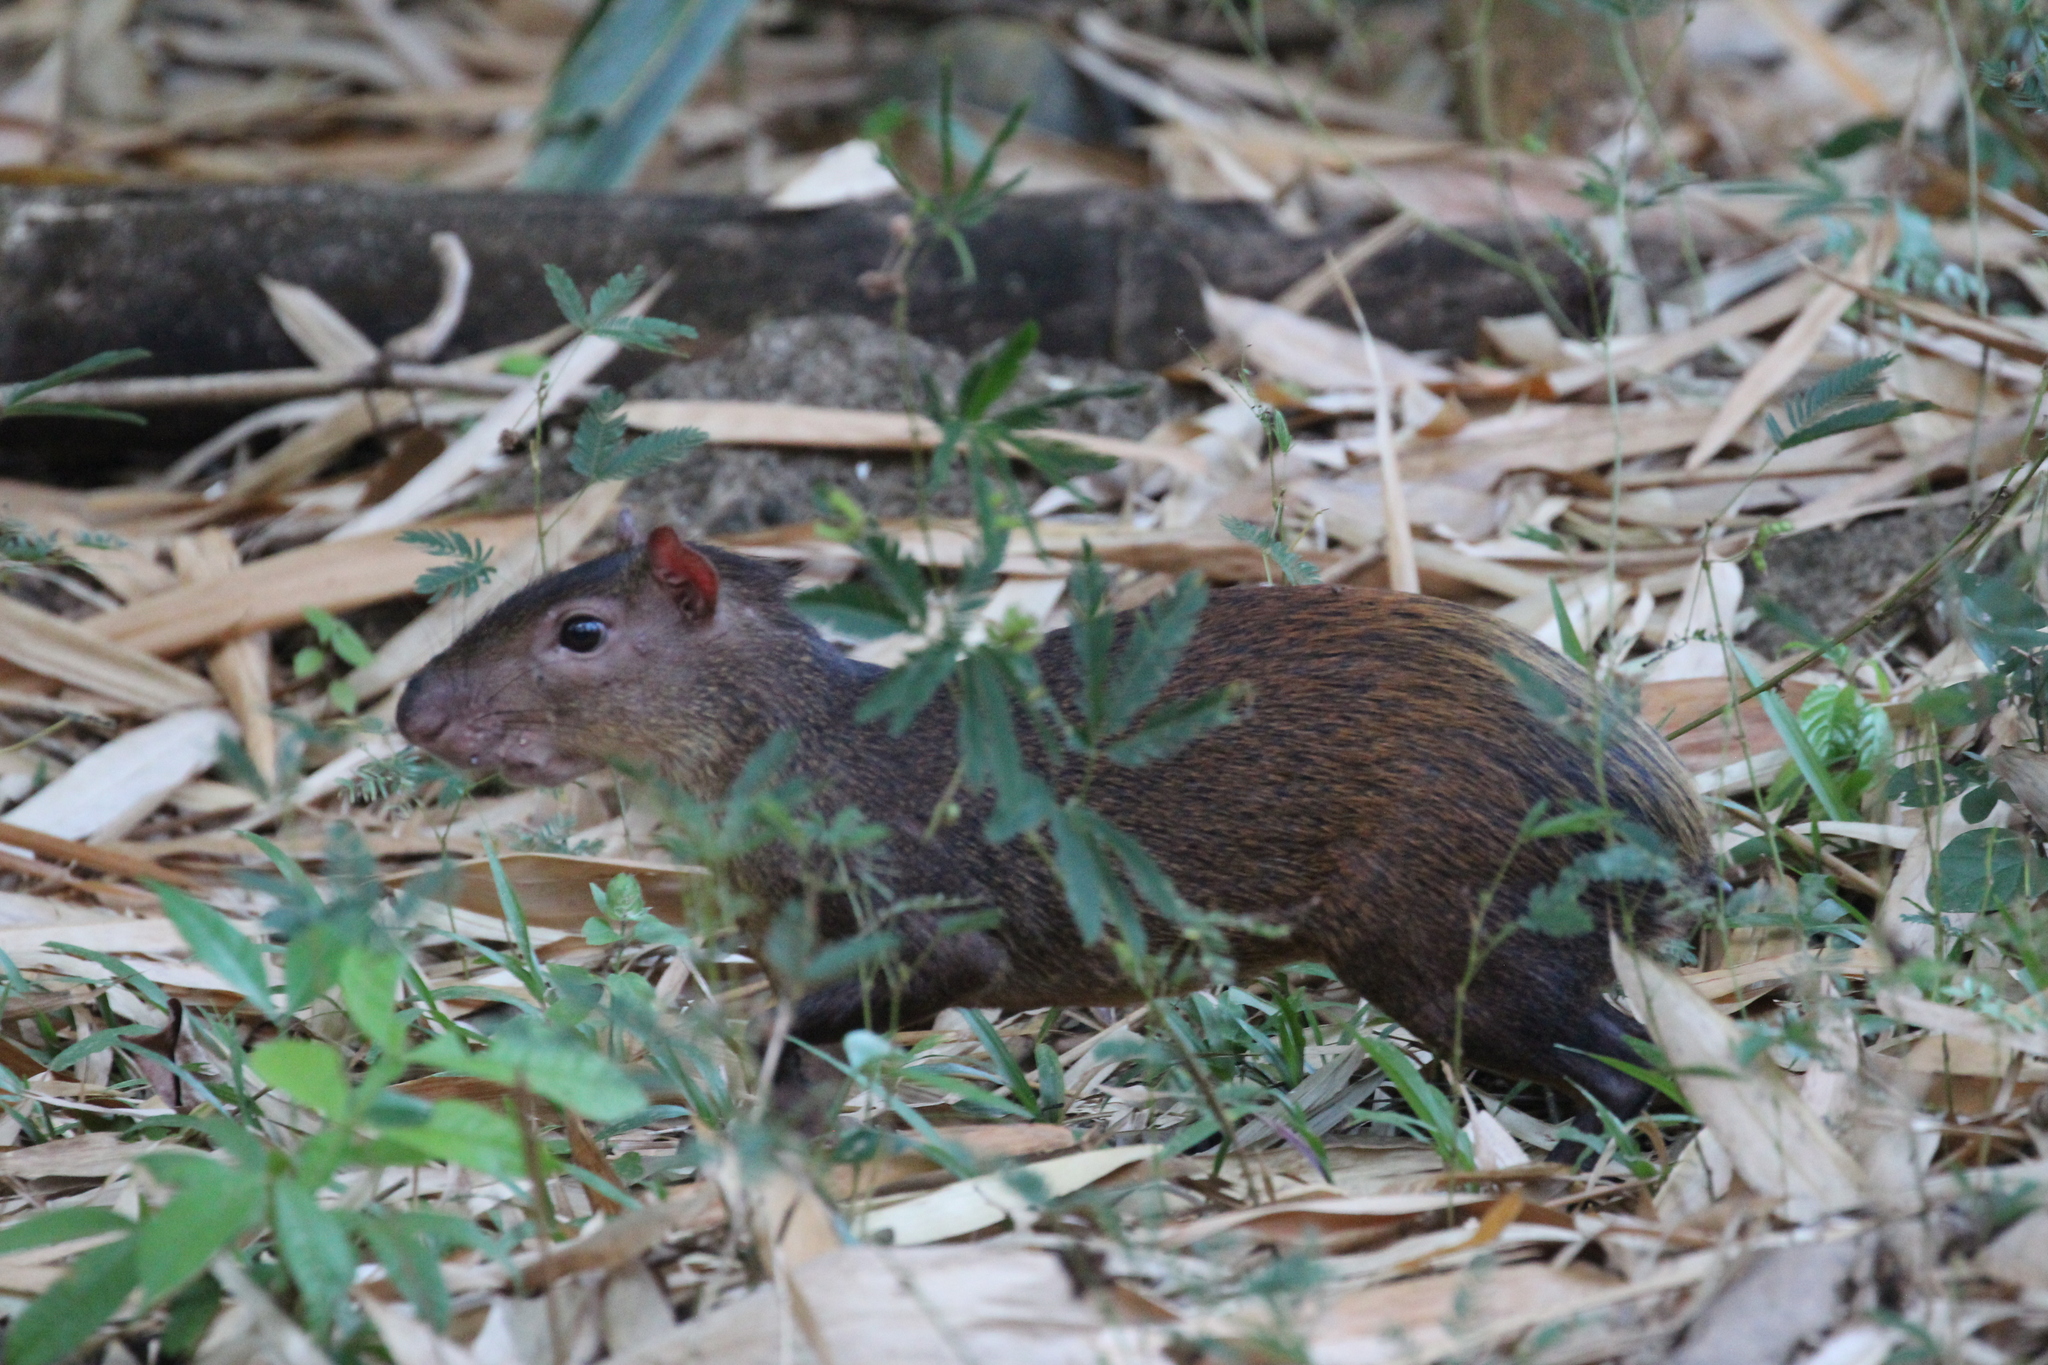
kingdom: Animalia
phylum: Chordata
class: Mammalia
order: Rodentia
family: Dasyproctidae
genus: Dasyprocta
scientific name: Dasyprocta punctata
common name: Central american agouti
